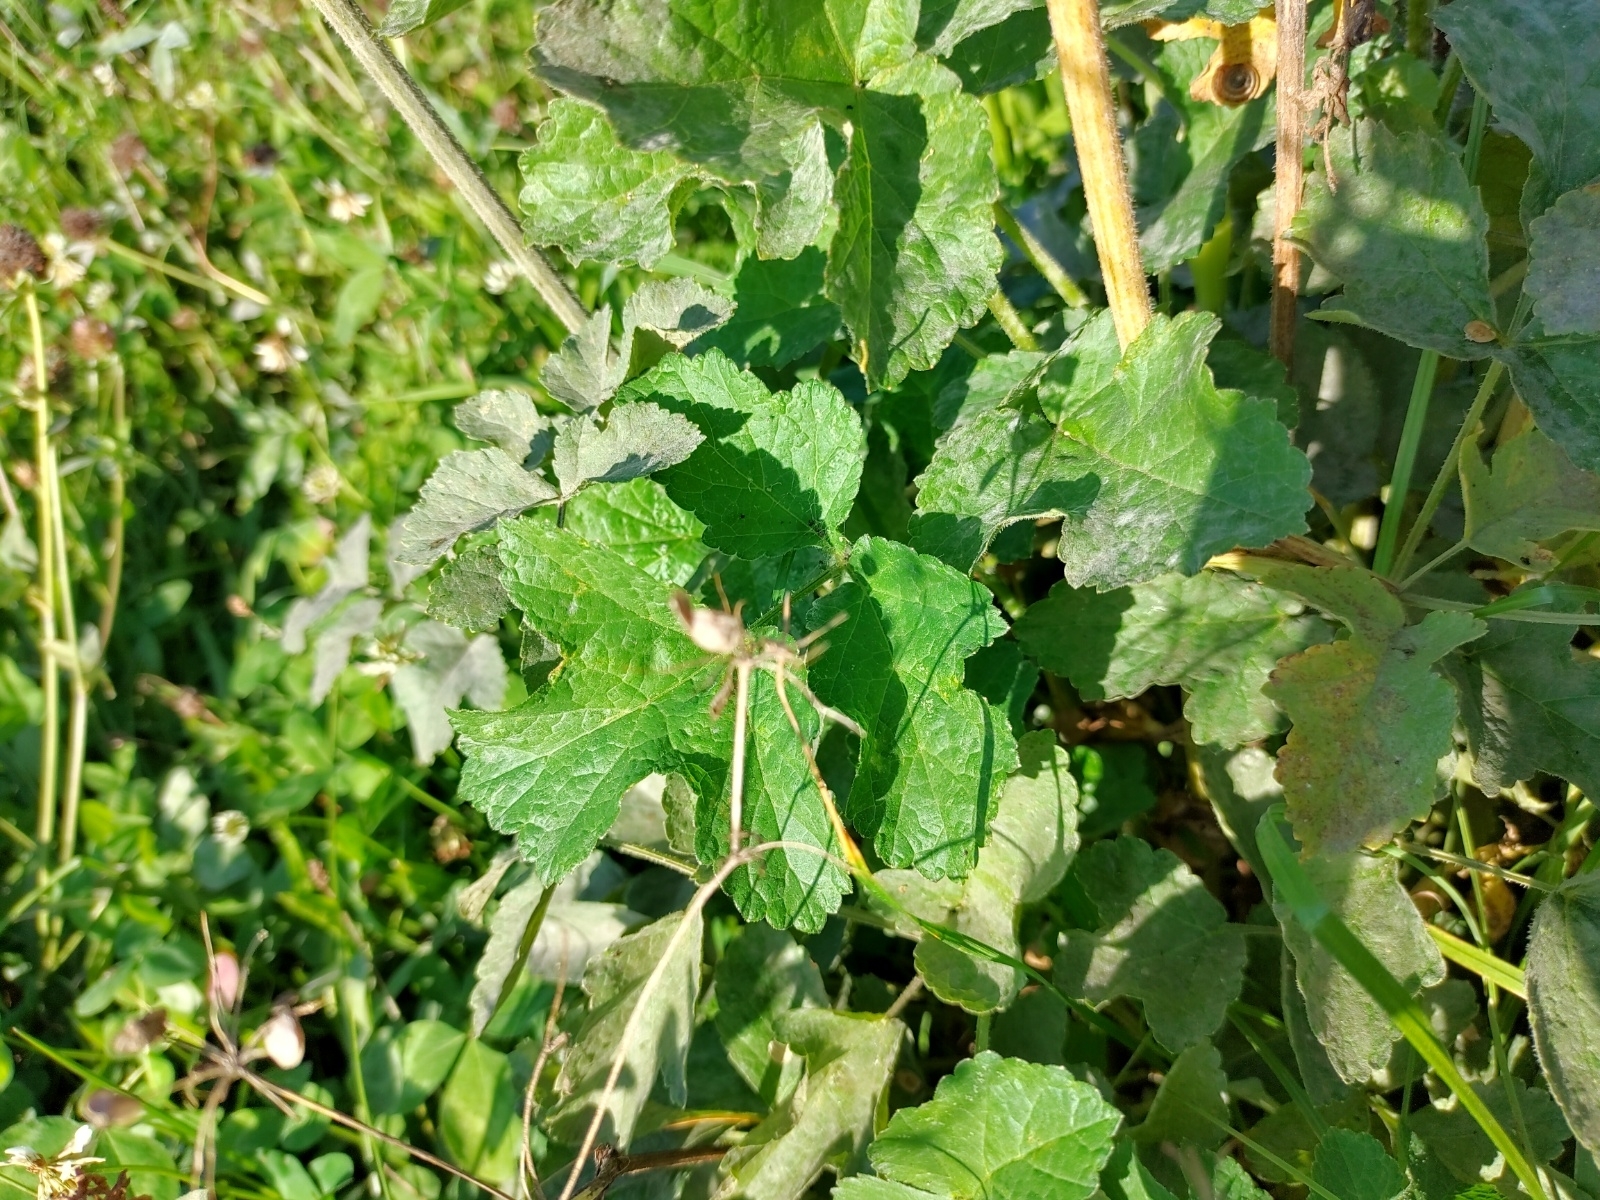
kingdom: Plantae
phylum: Tracheophyta
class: Magnoliopsida
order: Apiales
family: Apiaceae
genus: Heracleum
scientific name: Heracleum sphondylium
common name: Hogweed
